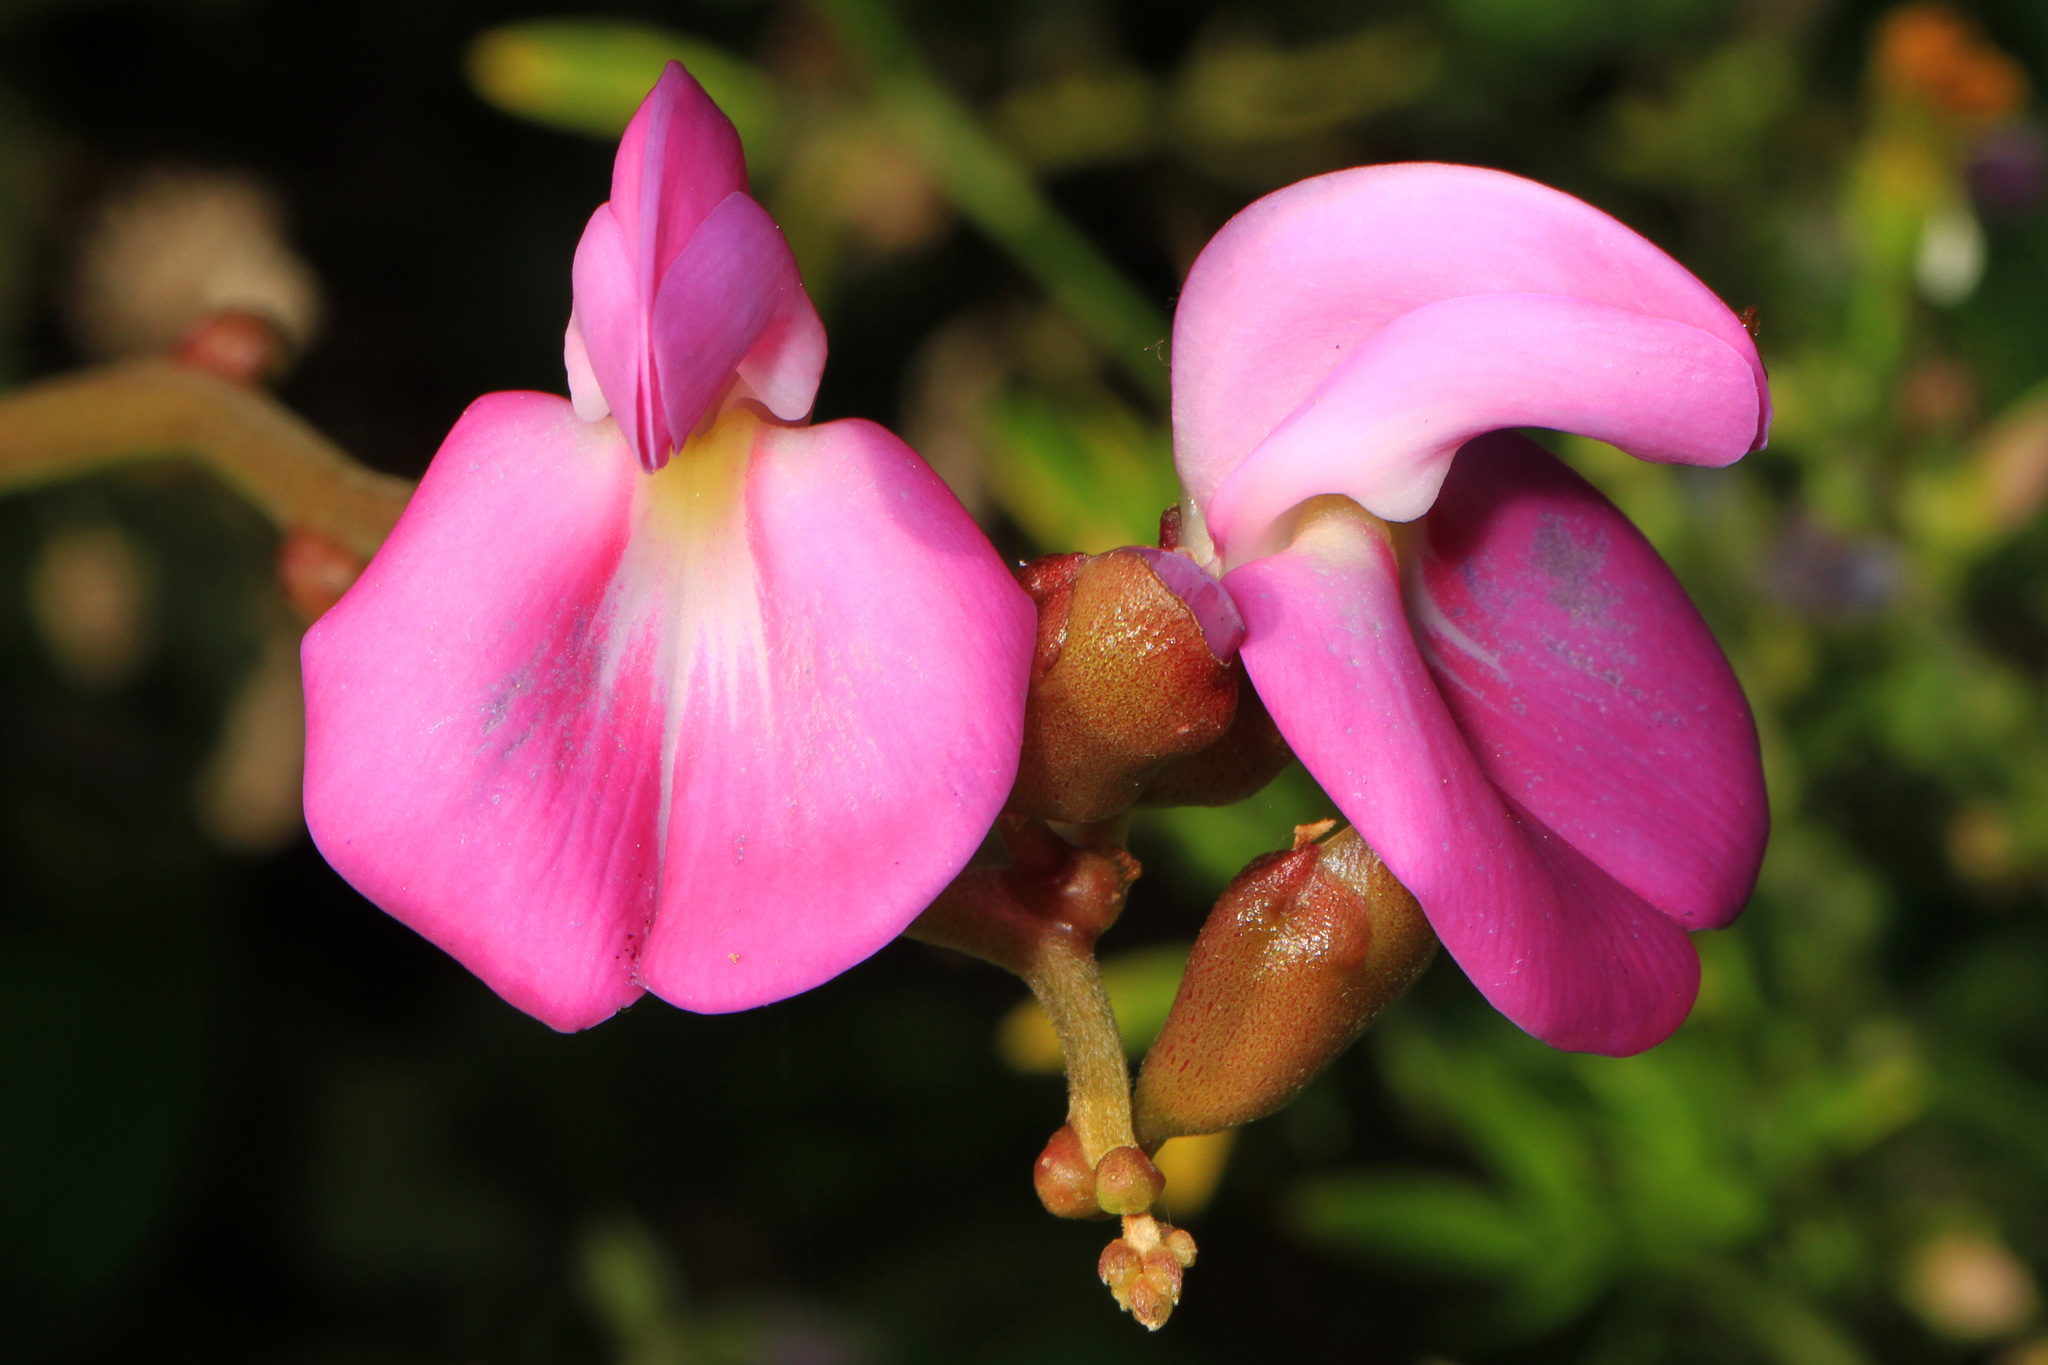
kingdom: Plantae
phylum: Tracheophyta
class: Magnoliopsida
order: Fabales
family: Fabaceae
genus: Canavalia
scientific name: Canavalia rosea
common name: Beach-bean
